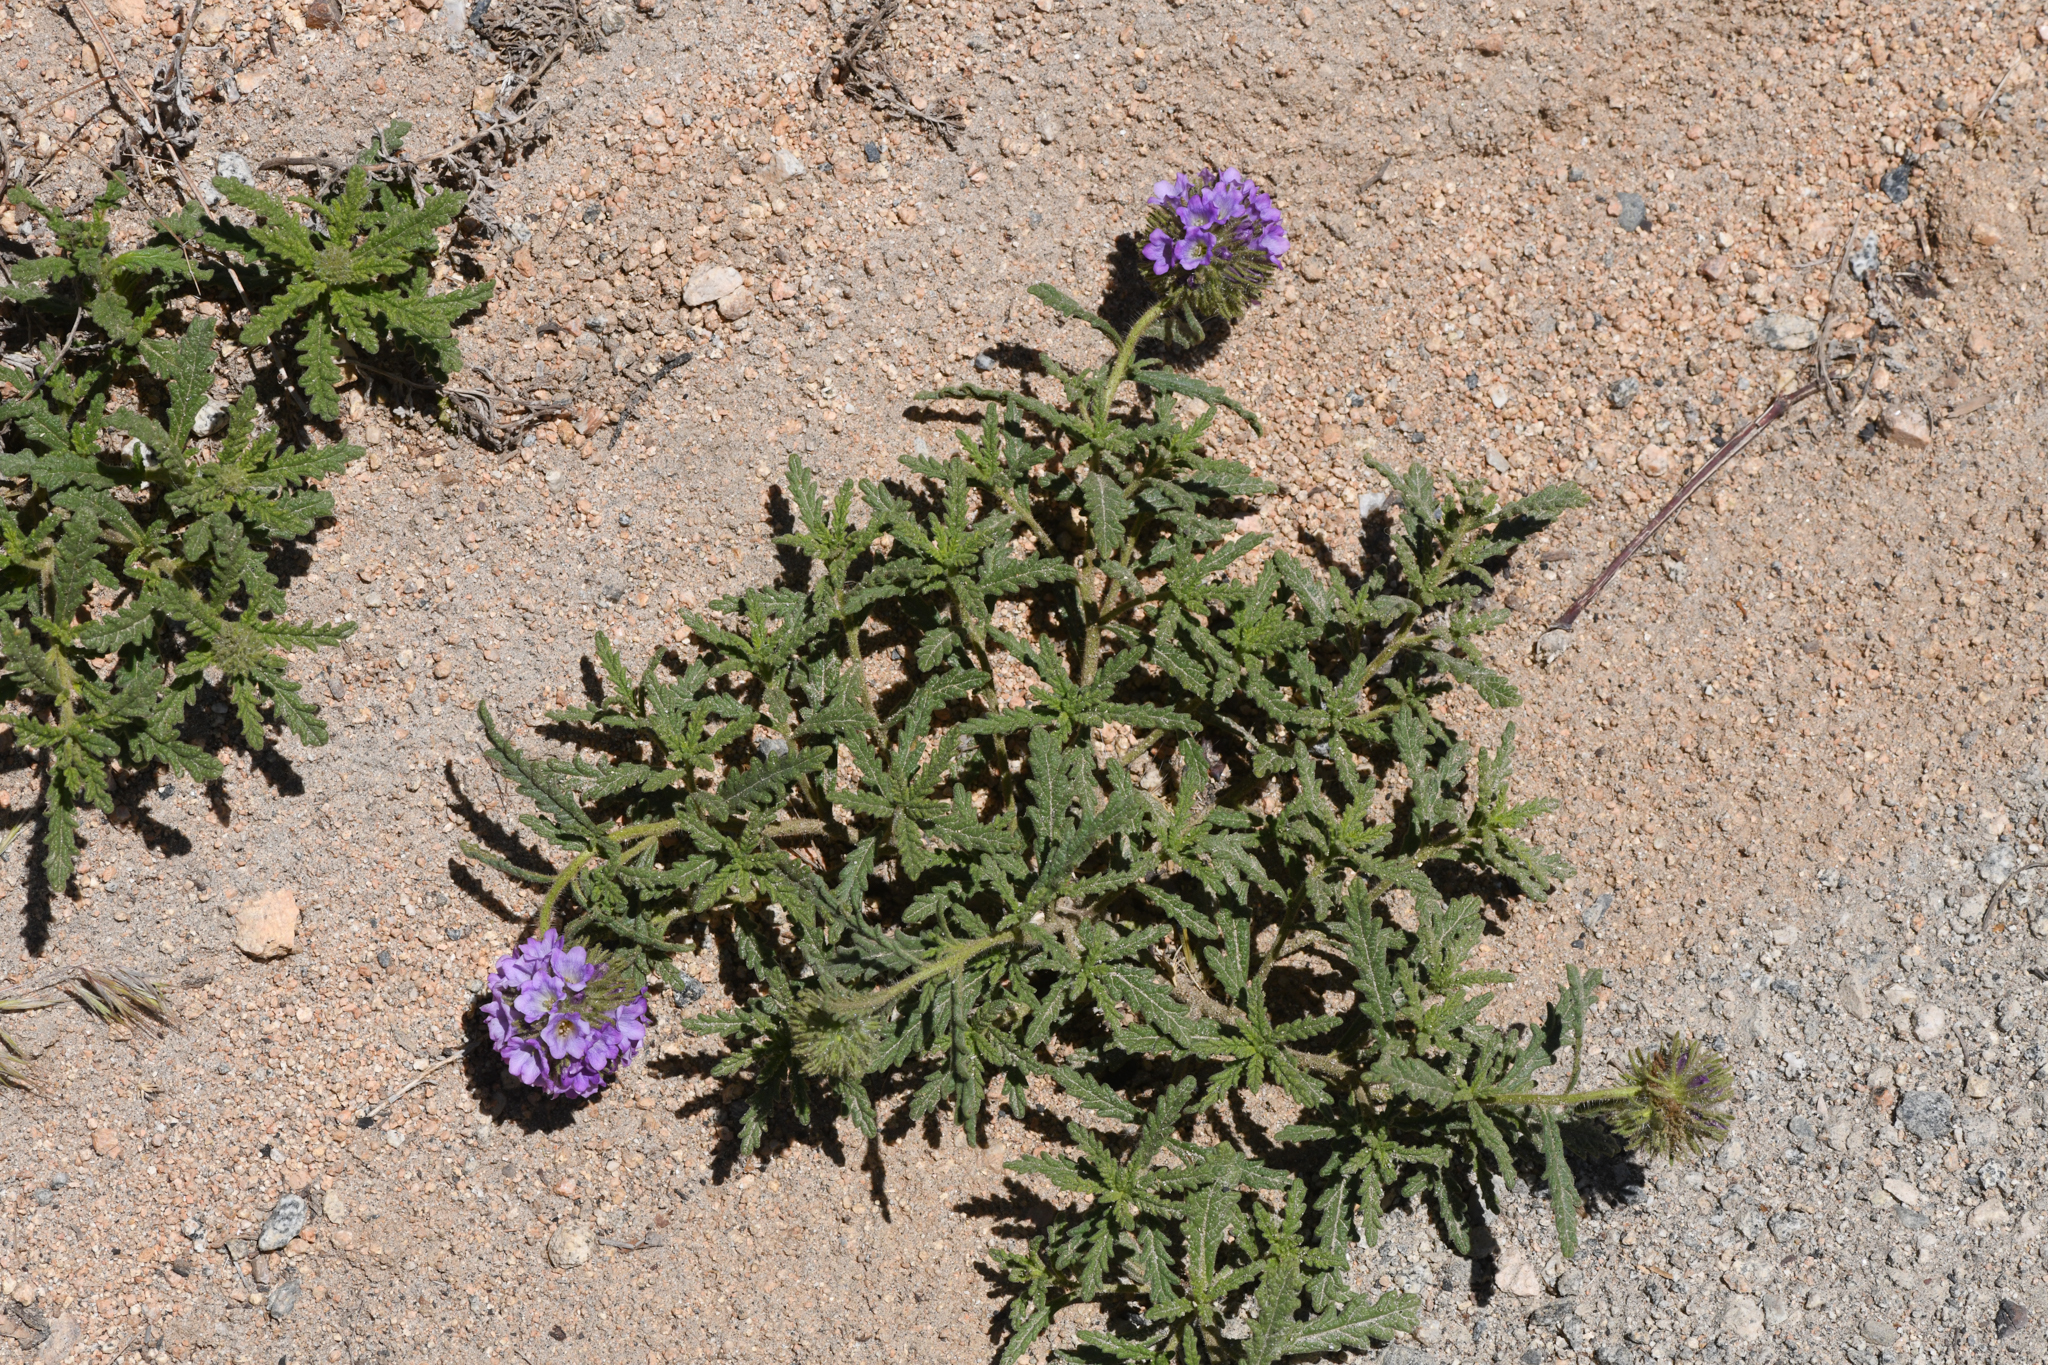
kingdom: Plantae
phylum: Tracheophyta
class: Magnoliopsida
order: Boraginales
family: Namaceae
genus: Nama
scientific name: Nama rothrockii
